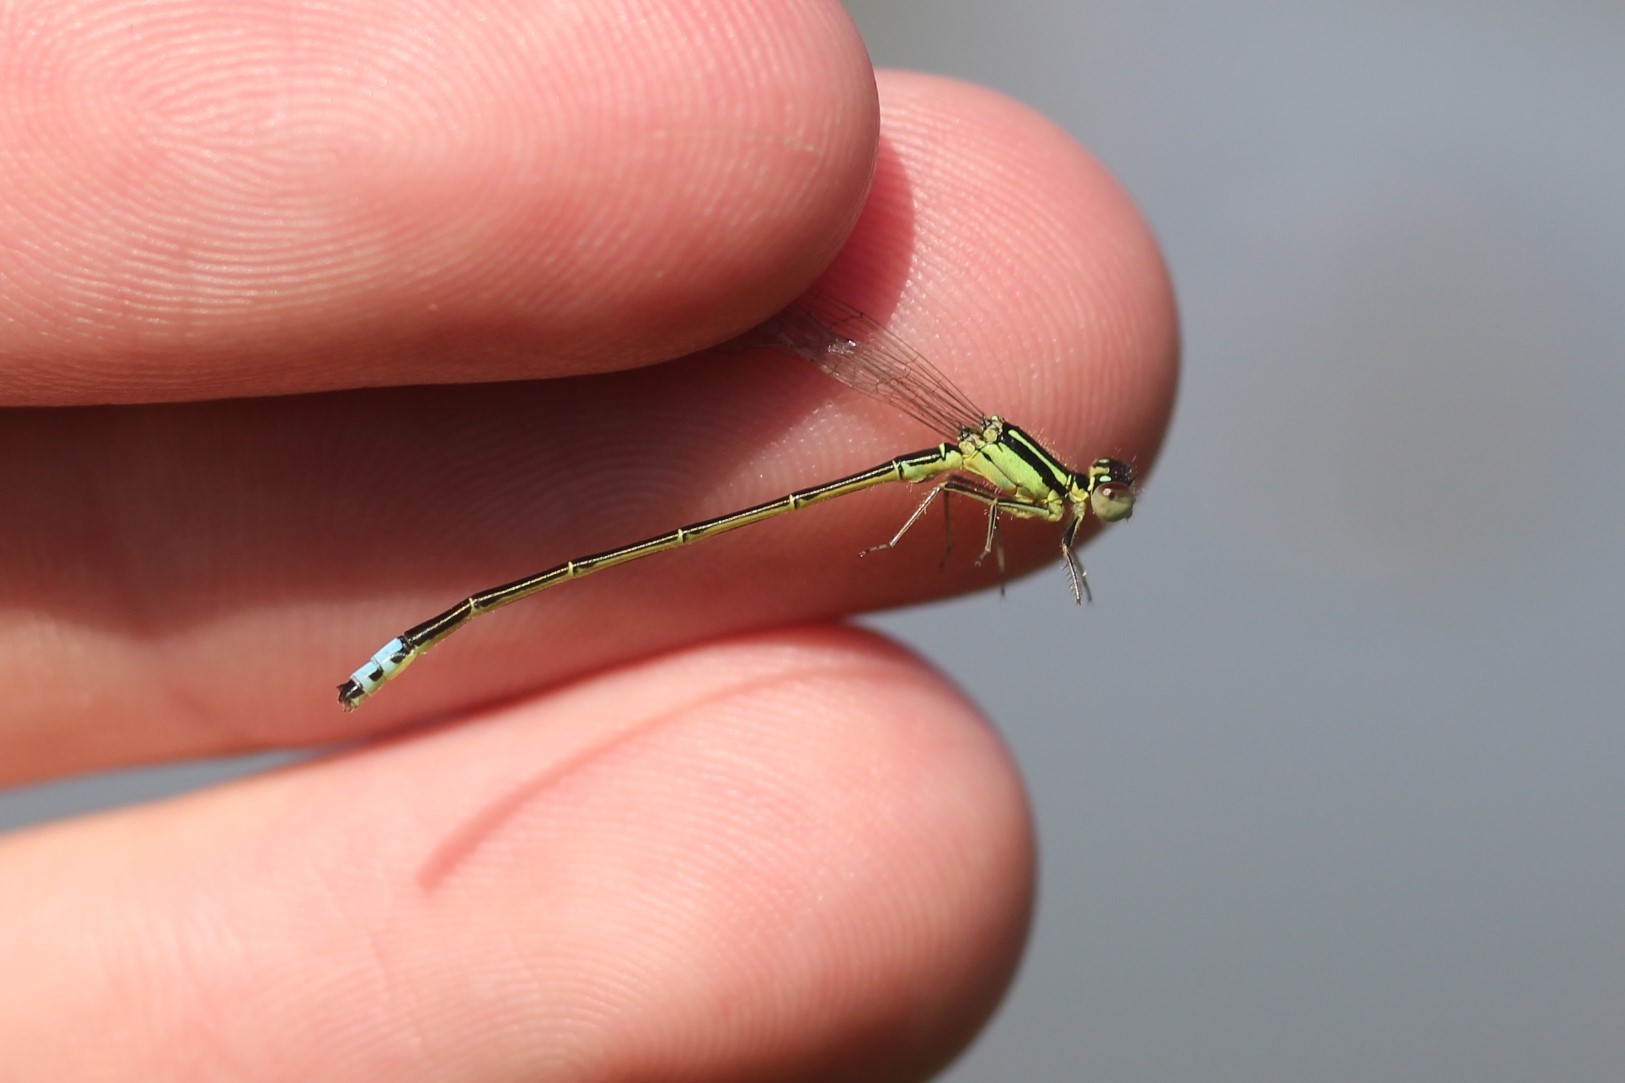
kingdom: Animalia
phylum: Arthropoda
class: Insecta
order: Odonata
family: Coenagrionidae
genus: Ischnura
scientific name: Ischnura verticalis
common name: Eastern forktail
